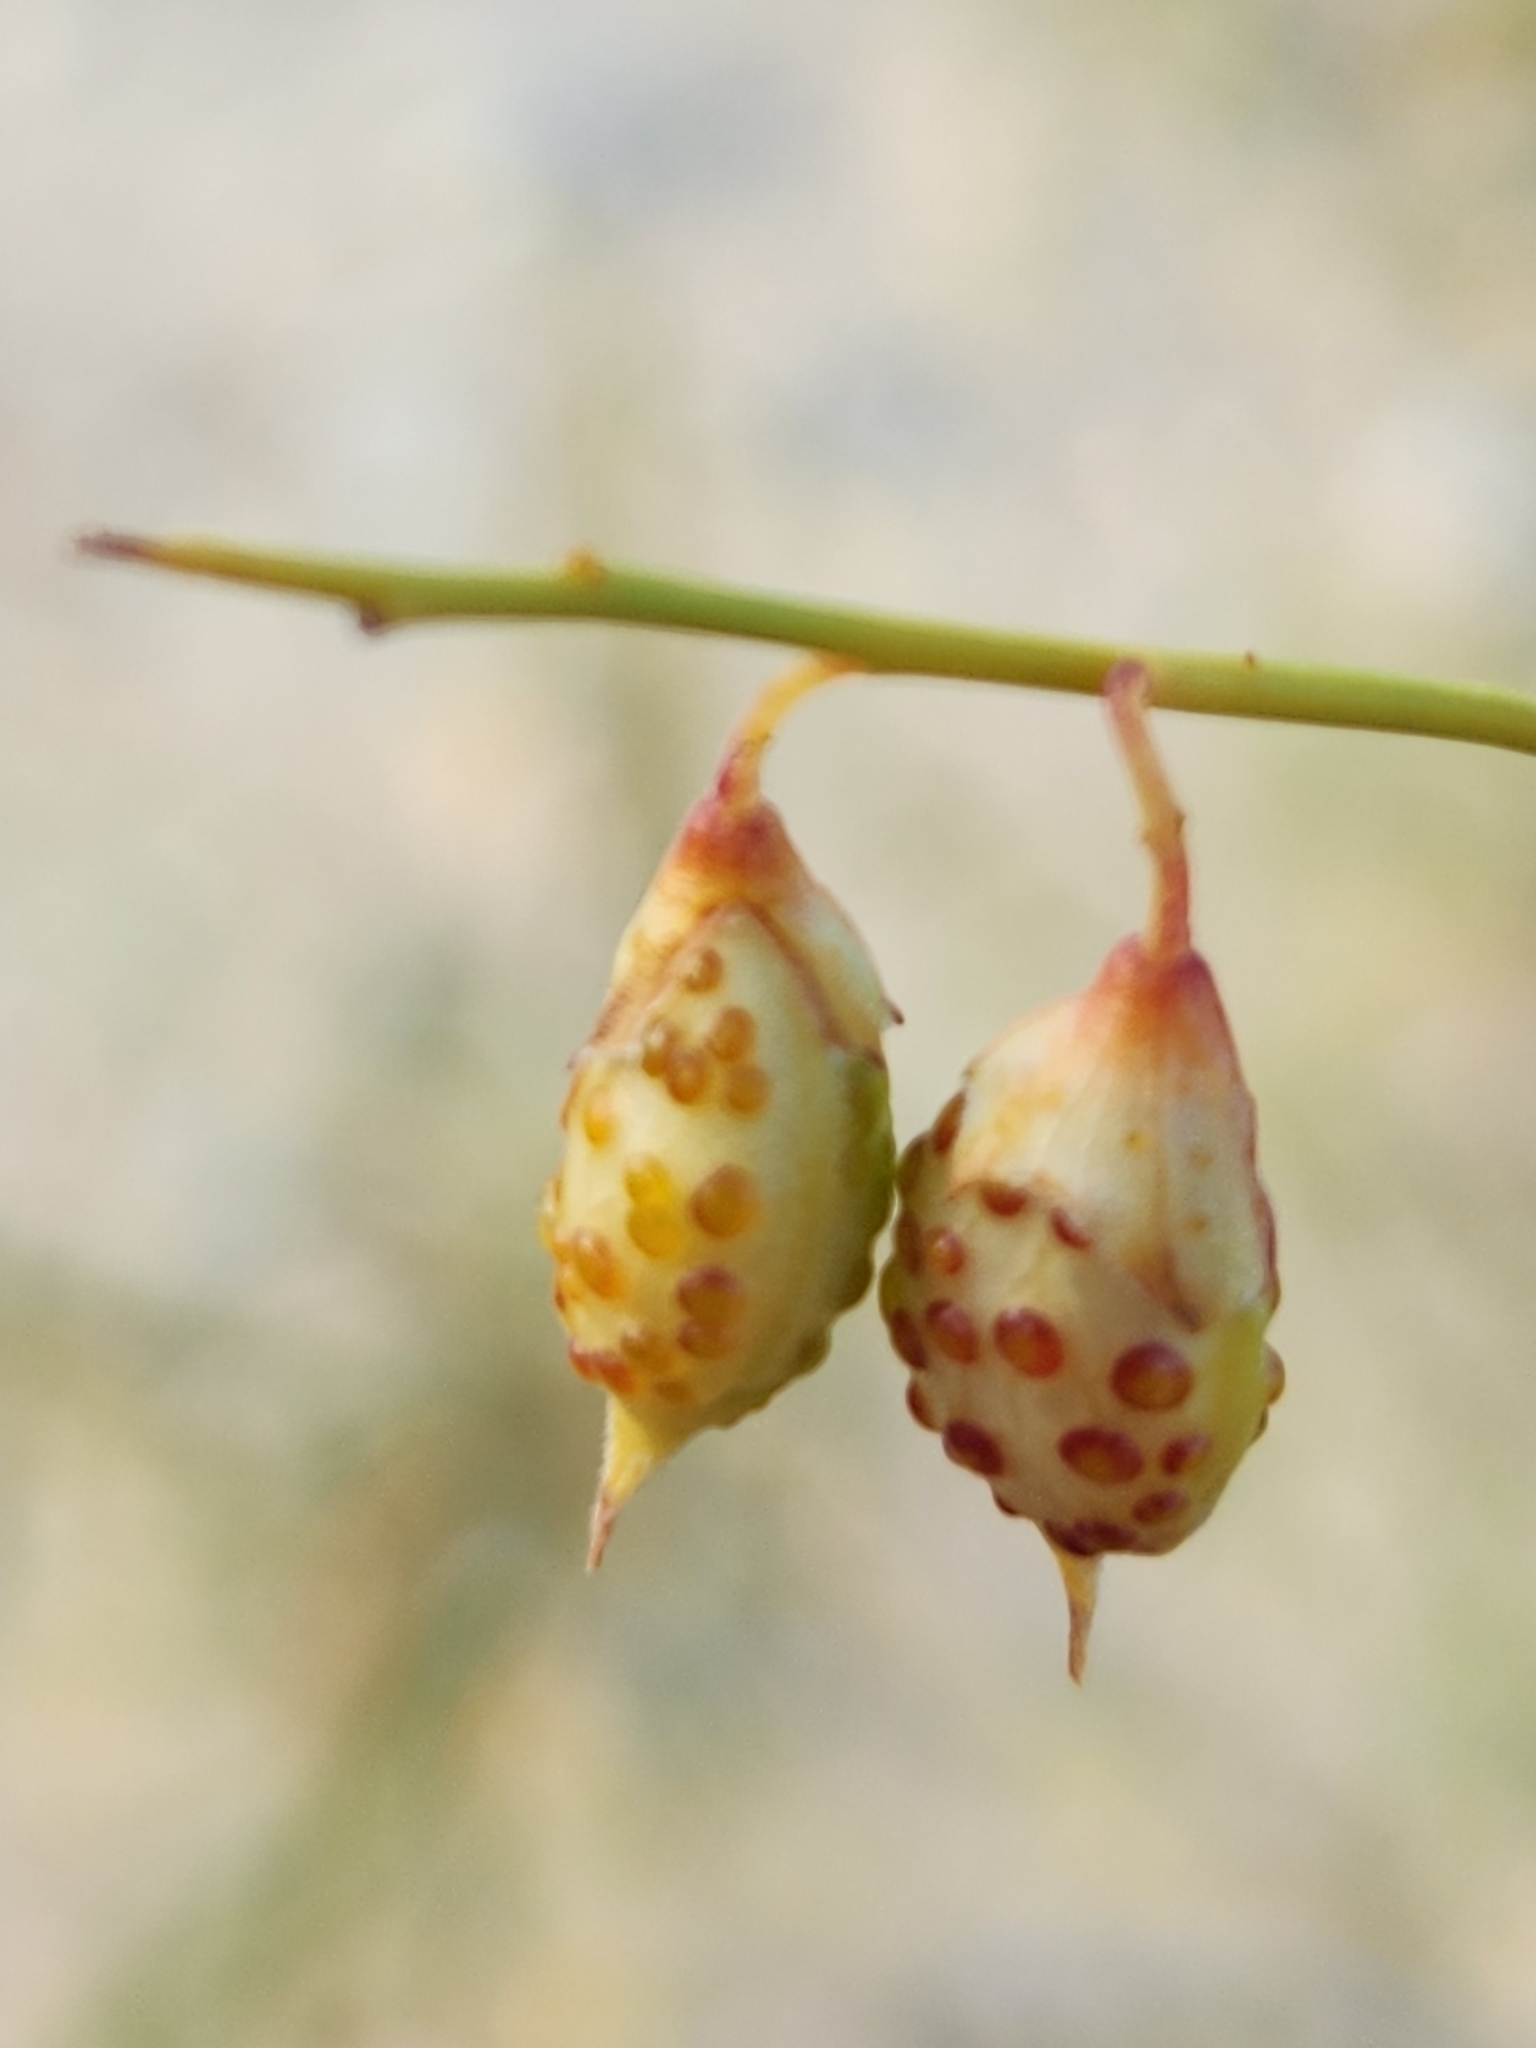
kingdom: Plantae
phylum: Tracheophyta
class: Magnoliopsida
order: Fabales
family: Fabaceae
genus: Psorothamnus
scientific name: Psorothamnus schottii
